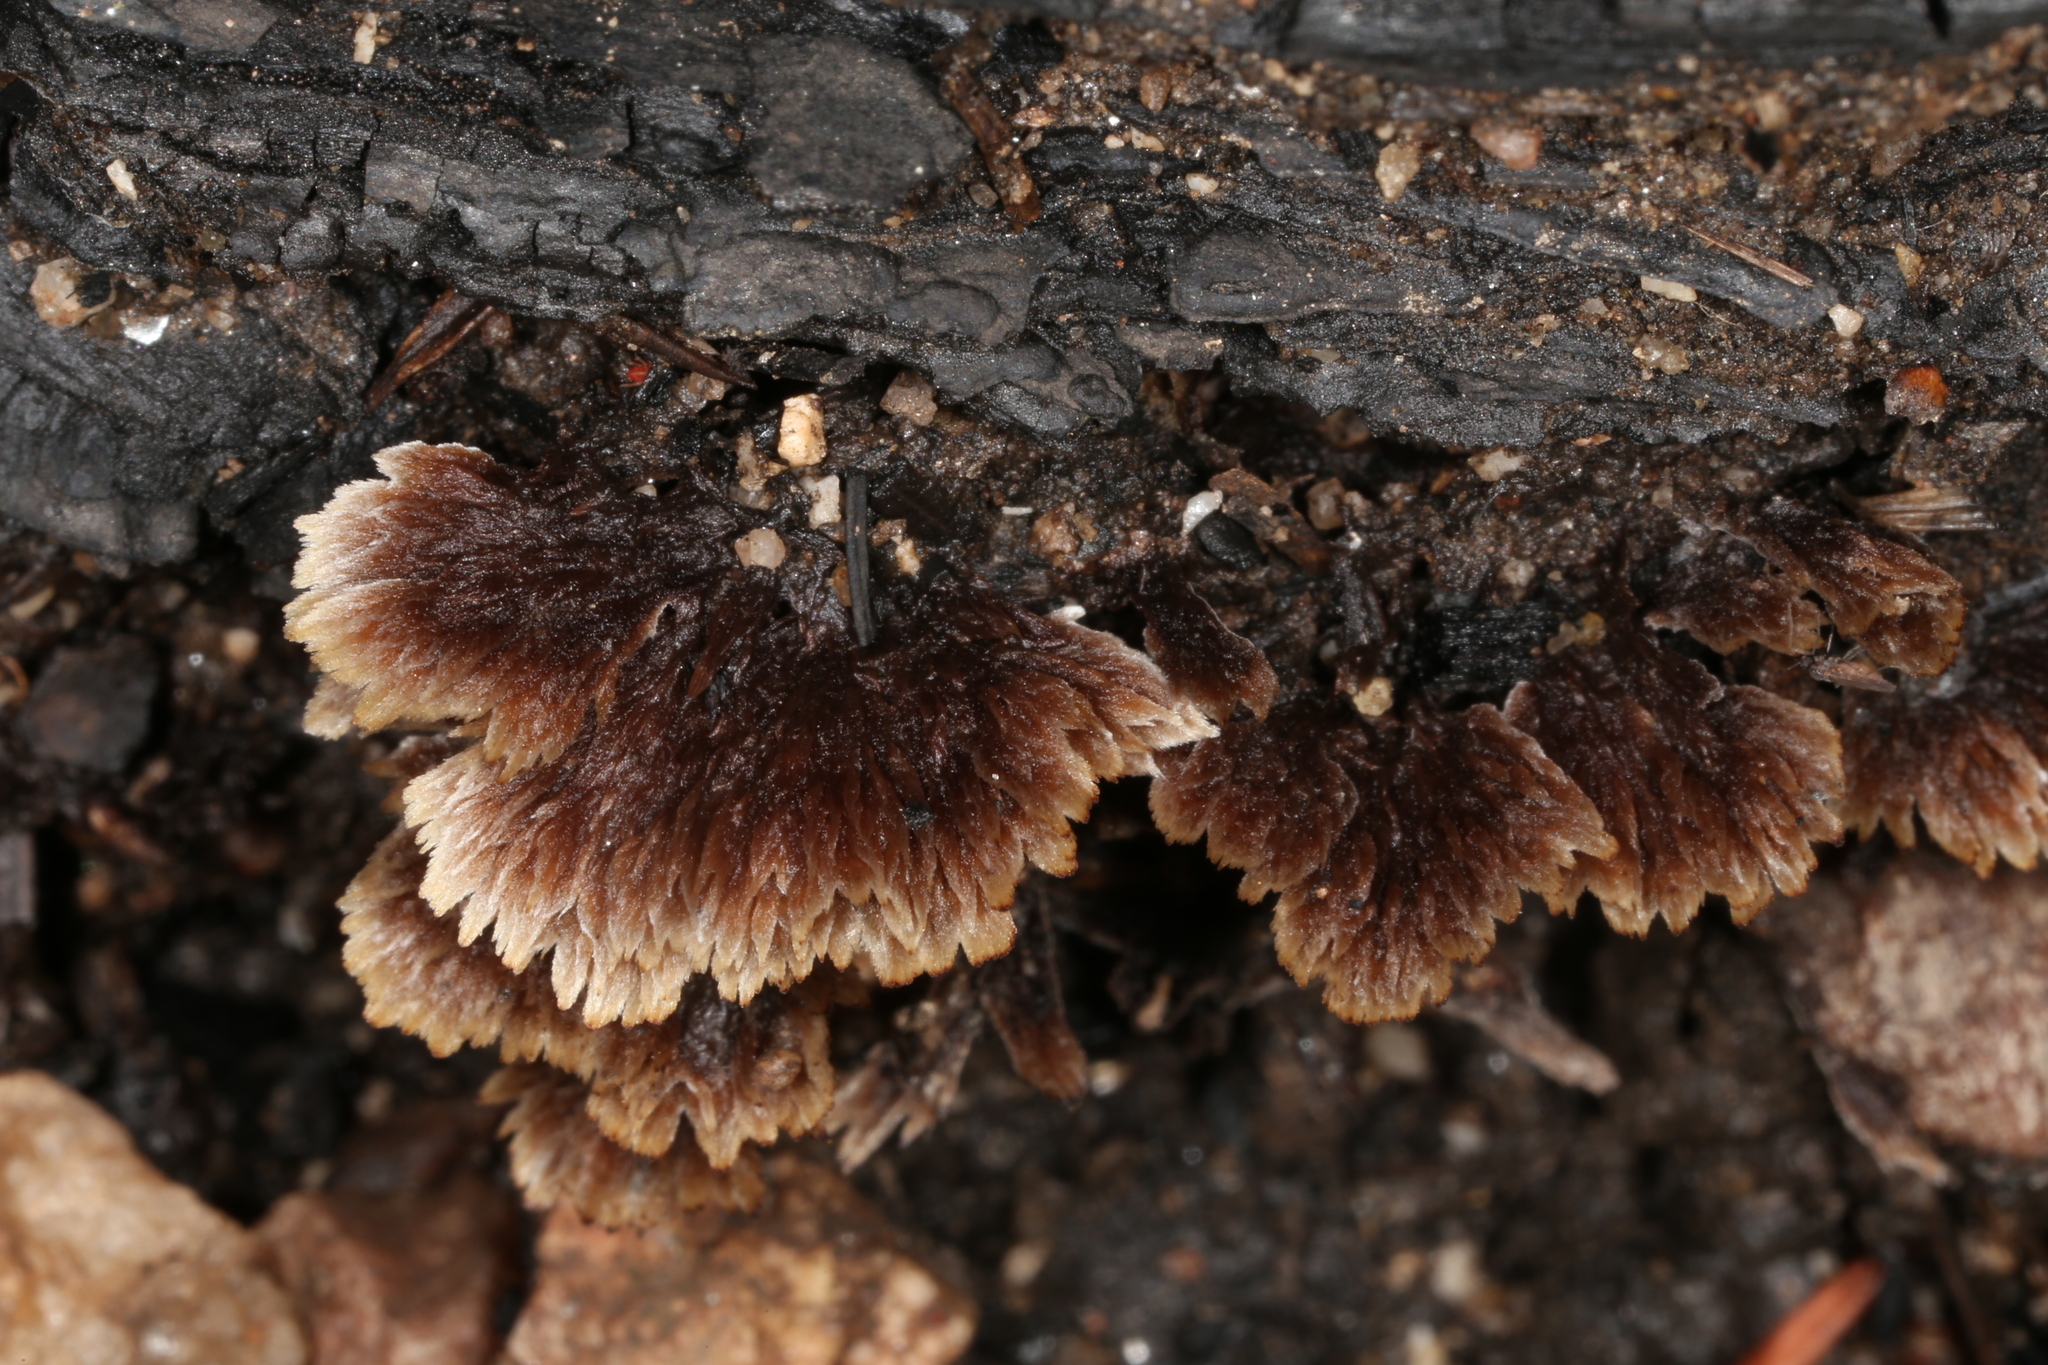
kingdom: Fungi
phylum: Basidiomycota
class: Agaricomycetes
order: Thelephorales
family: Thelephoraceae
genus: Thelephora
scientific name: Thelephora terrestris
